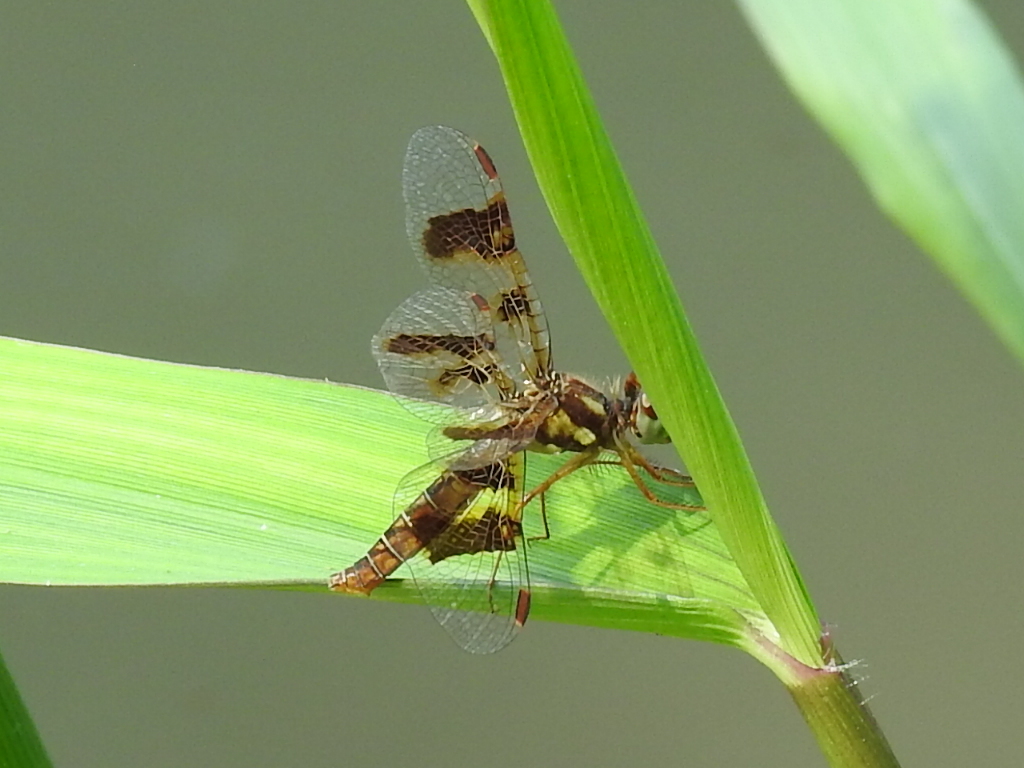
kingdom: Animalia
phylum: Arthropoda
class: Insecta
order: Odonata
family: Libellulidae
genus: Perithemis
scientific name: Perithemis tenera
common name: Eastern amberwing
